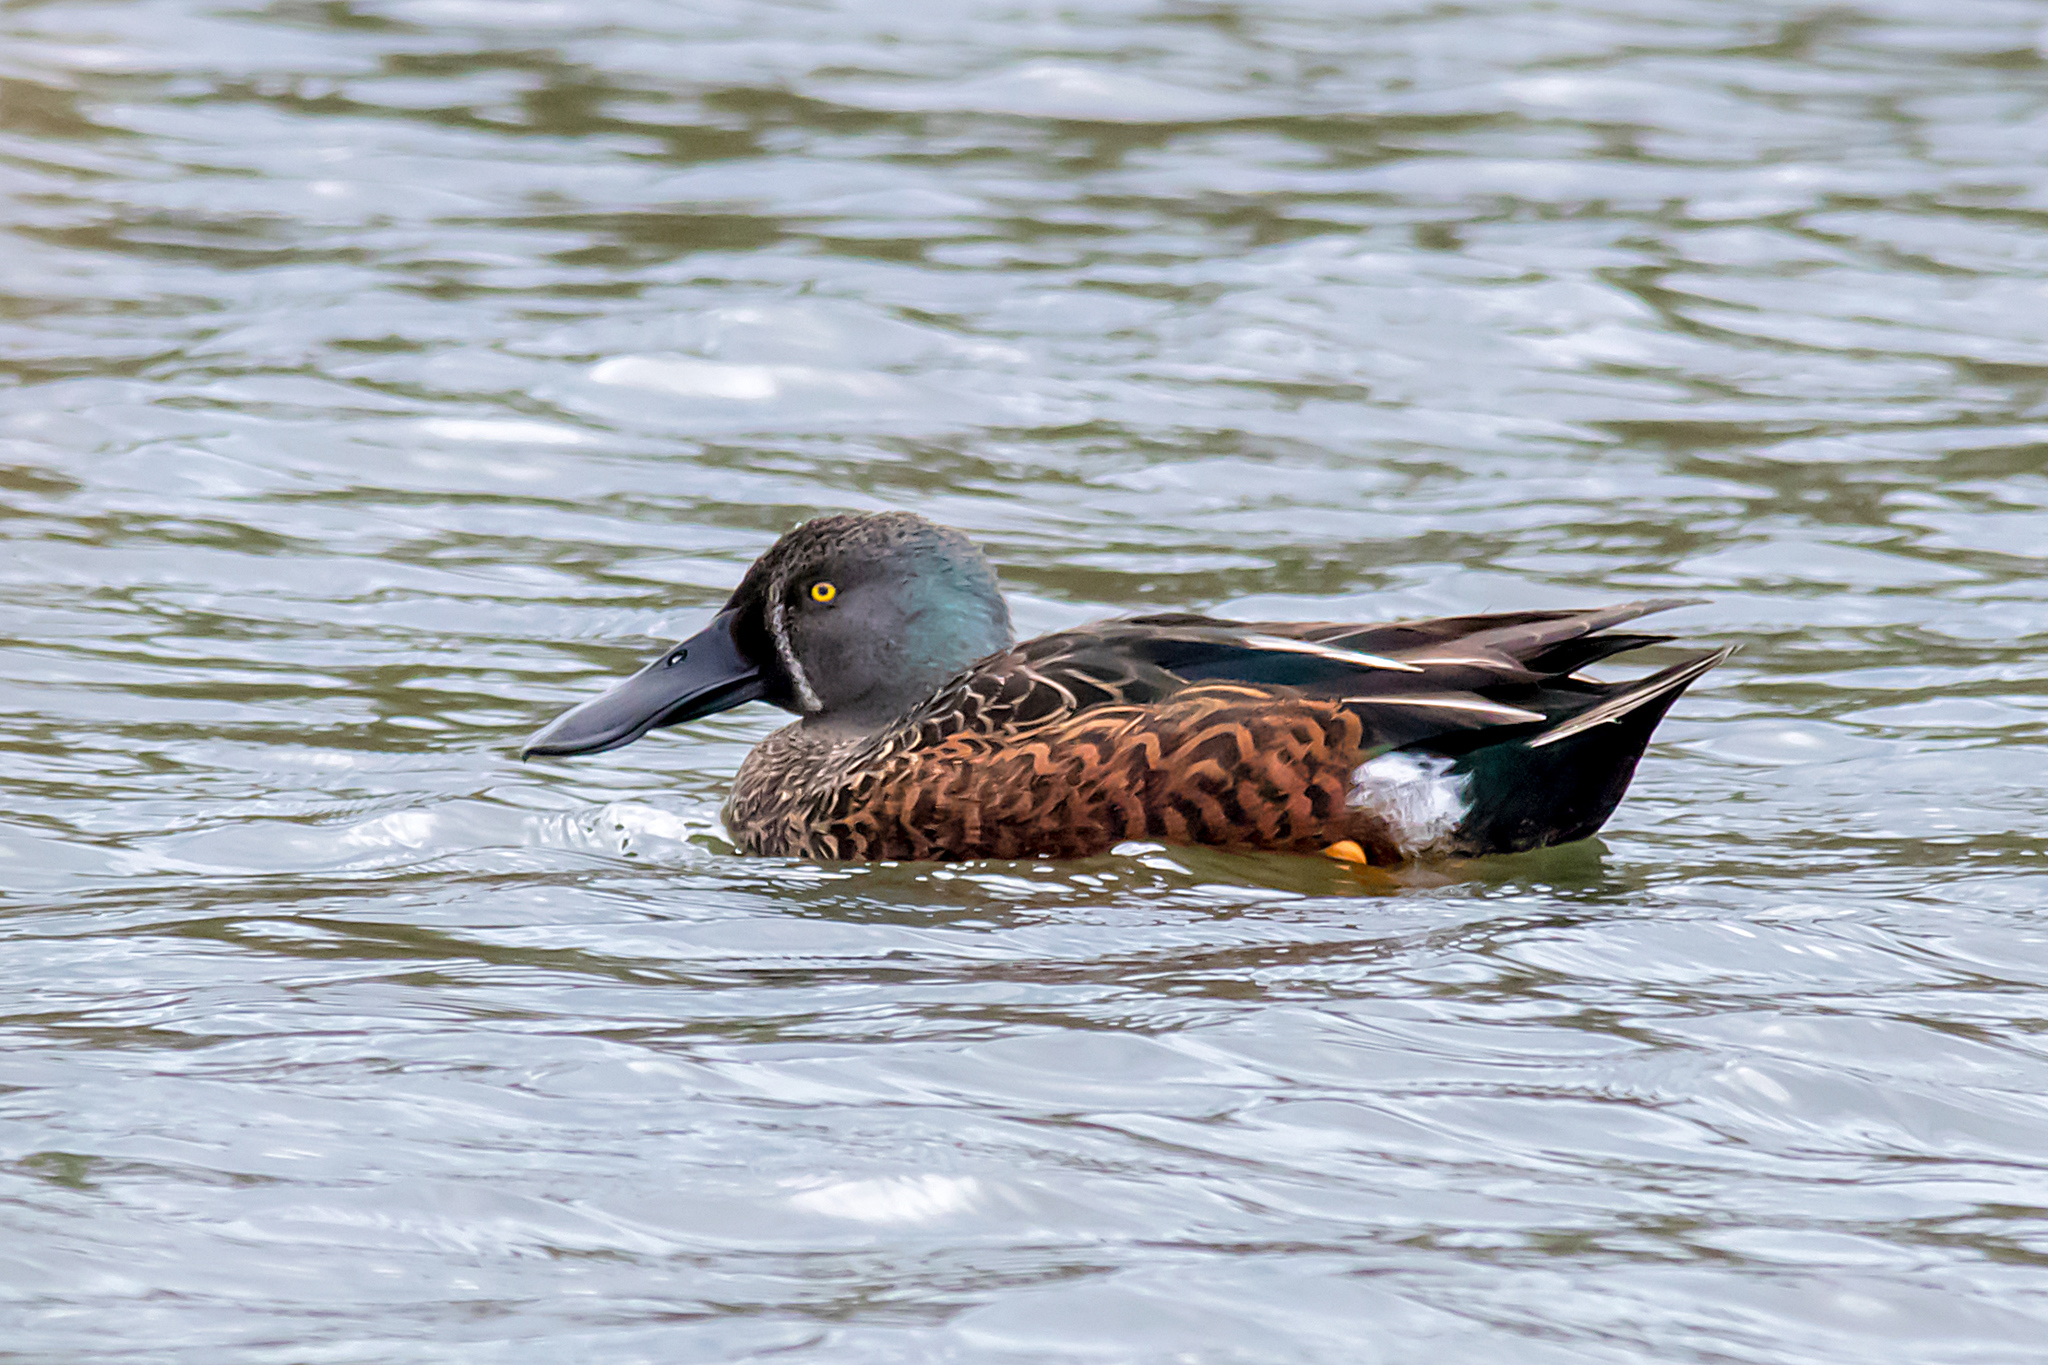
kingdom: Animalia
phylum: Chordata
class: Aves
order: Anseriformes
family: Anatidae
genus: Spatula
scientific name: Spatula rhynchotis
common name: Australian shoveler
